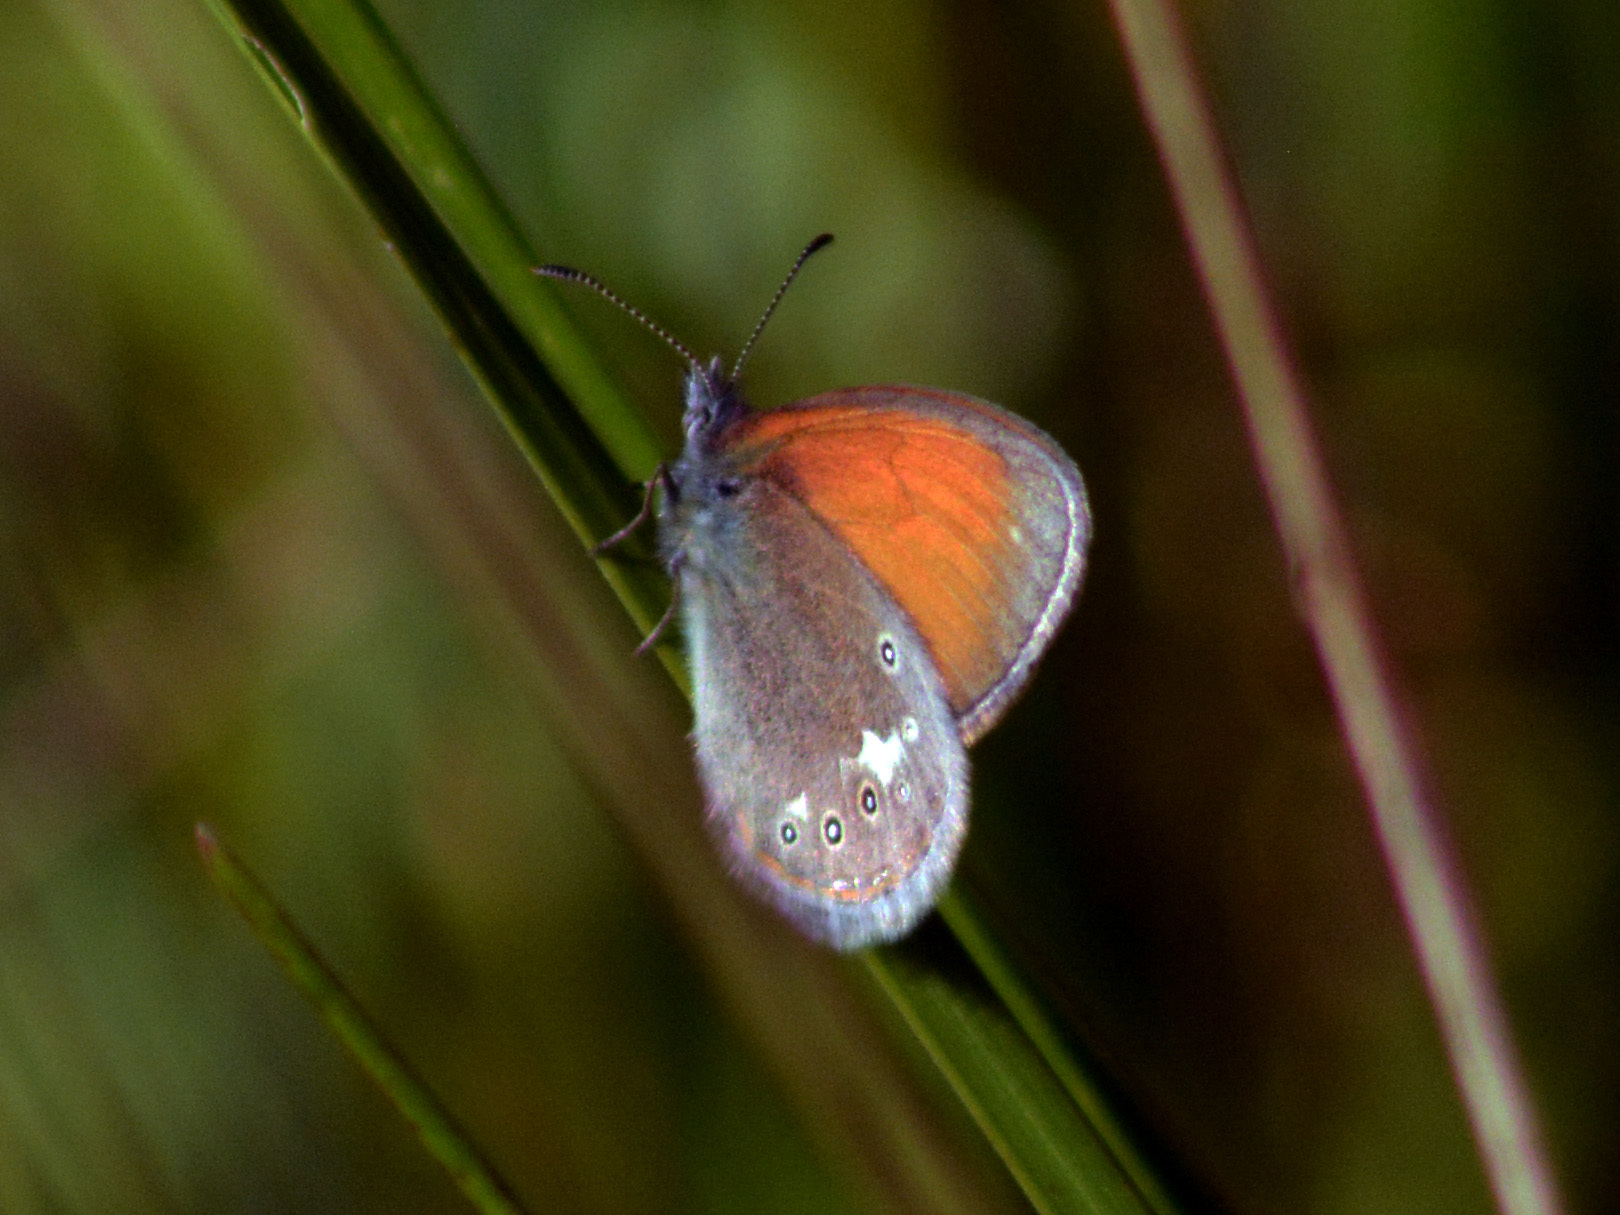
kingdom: Animalia
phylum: Arthropoda
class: Insecta
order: Lepidoptera
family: Nymphalidae
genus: Coenonympha
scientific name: Coenonympha iphis
